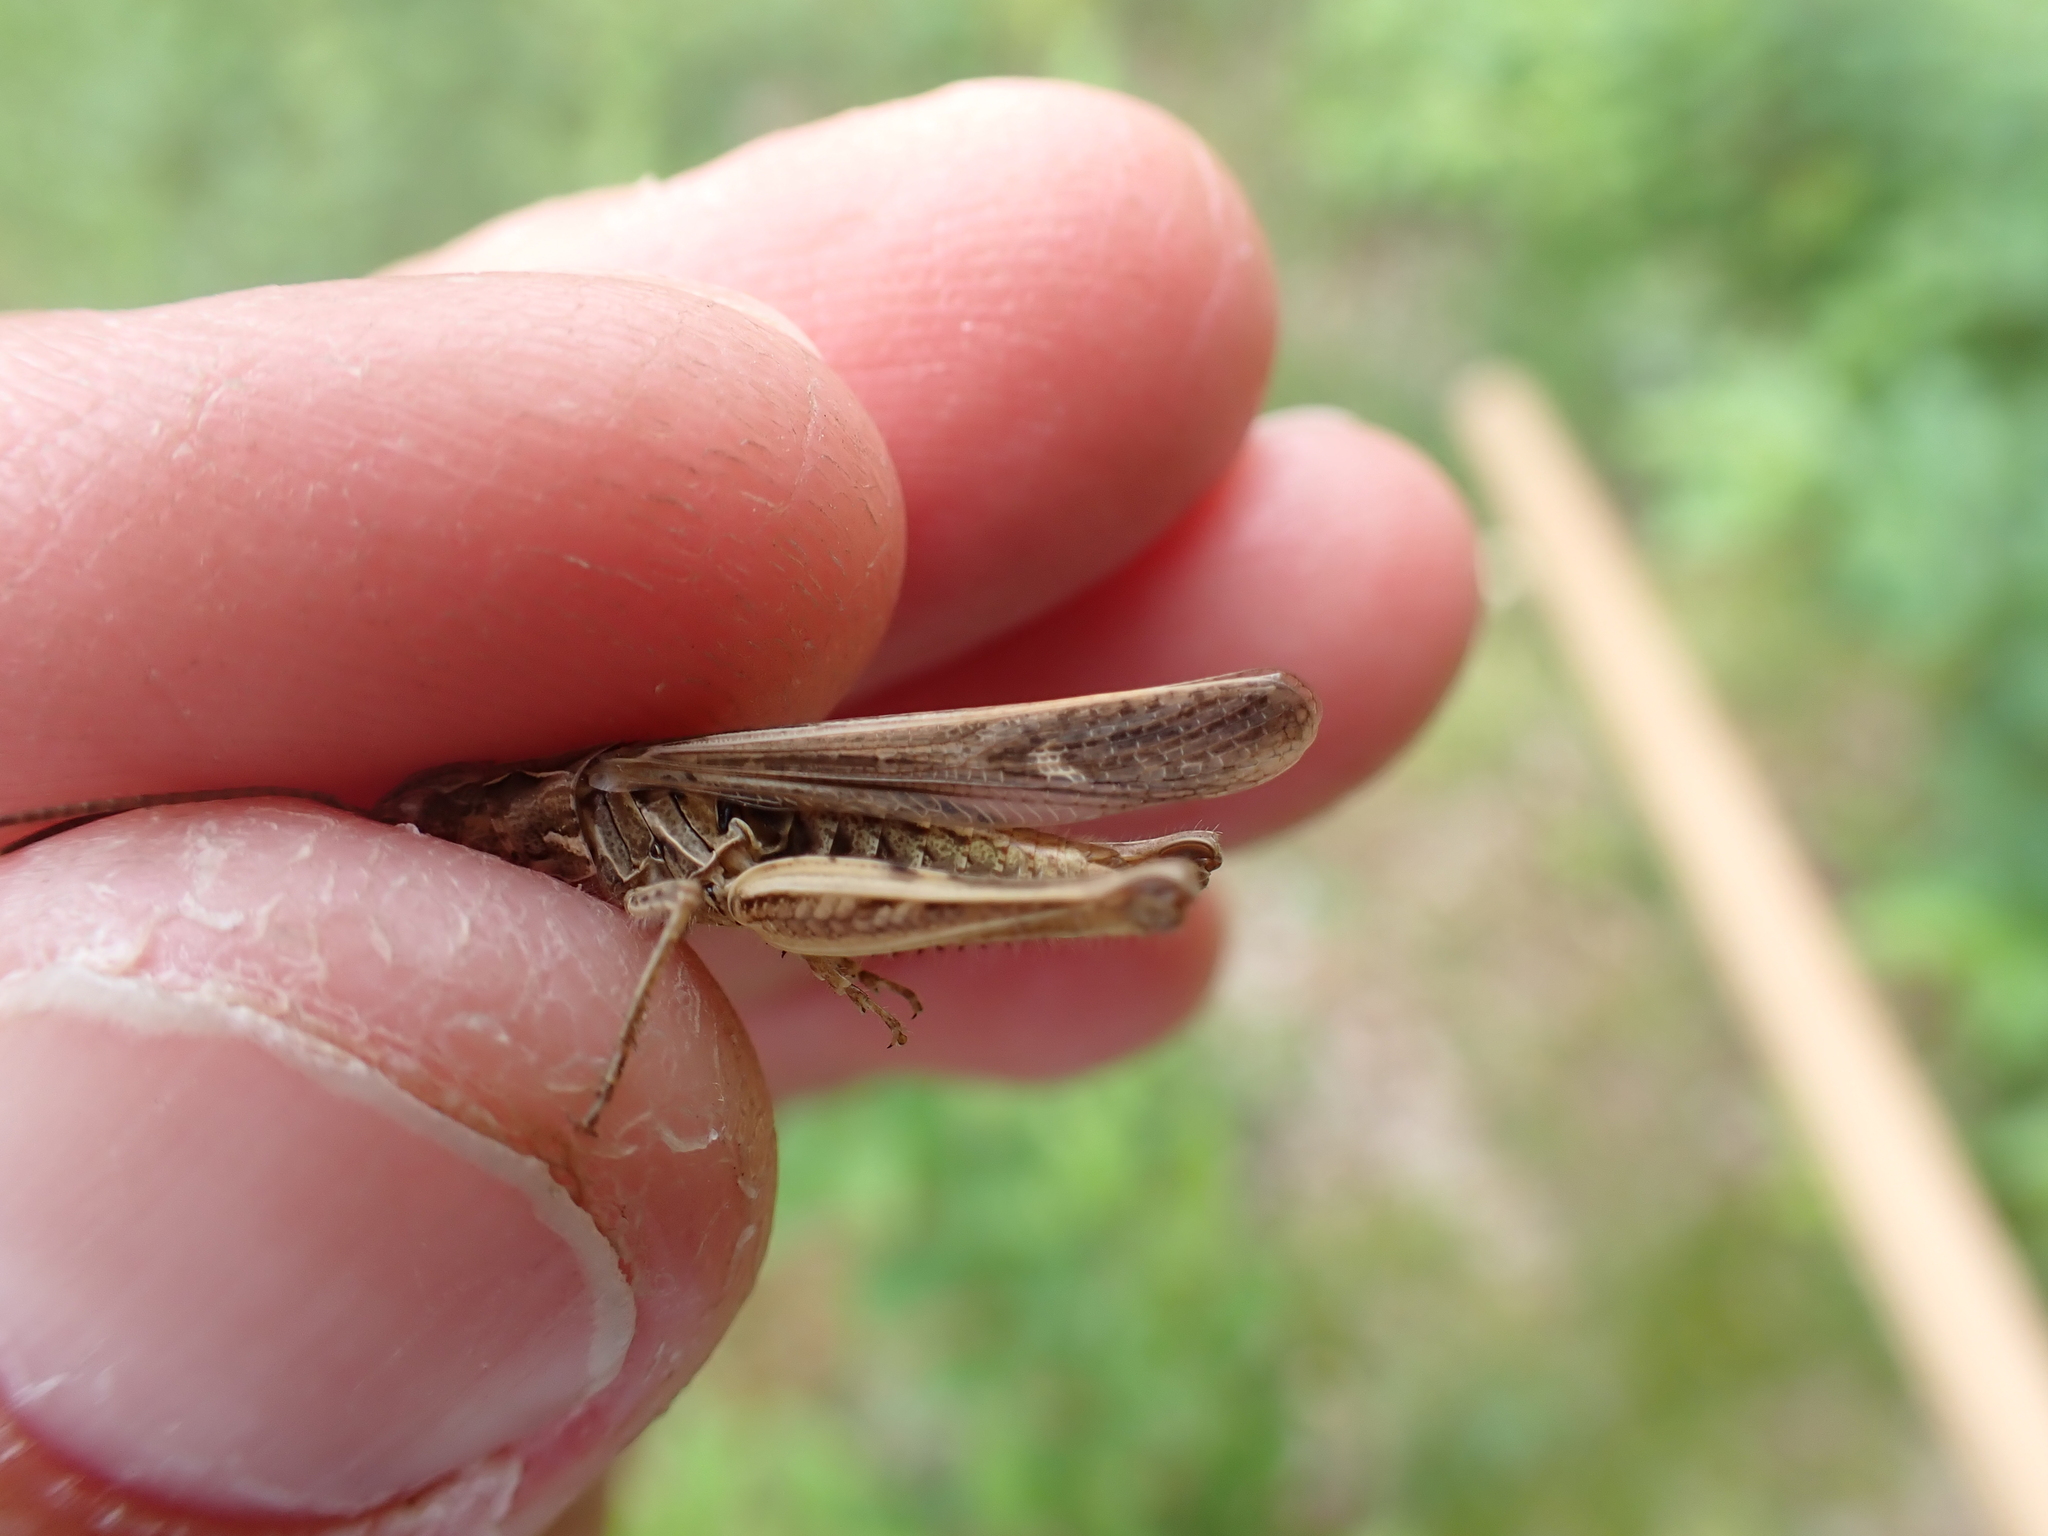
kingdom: Animalia
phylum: Arthropoda
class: Insecta
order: Orthoptera
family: Acrididae
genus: Chorthippus
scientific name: Chorthippus brunneus
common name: Field grasshopper
